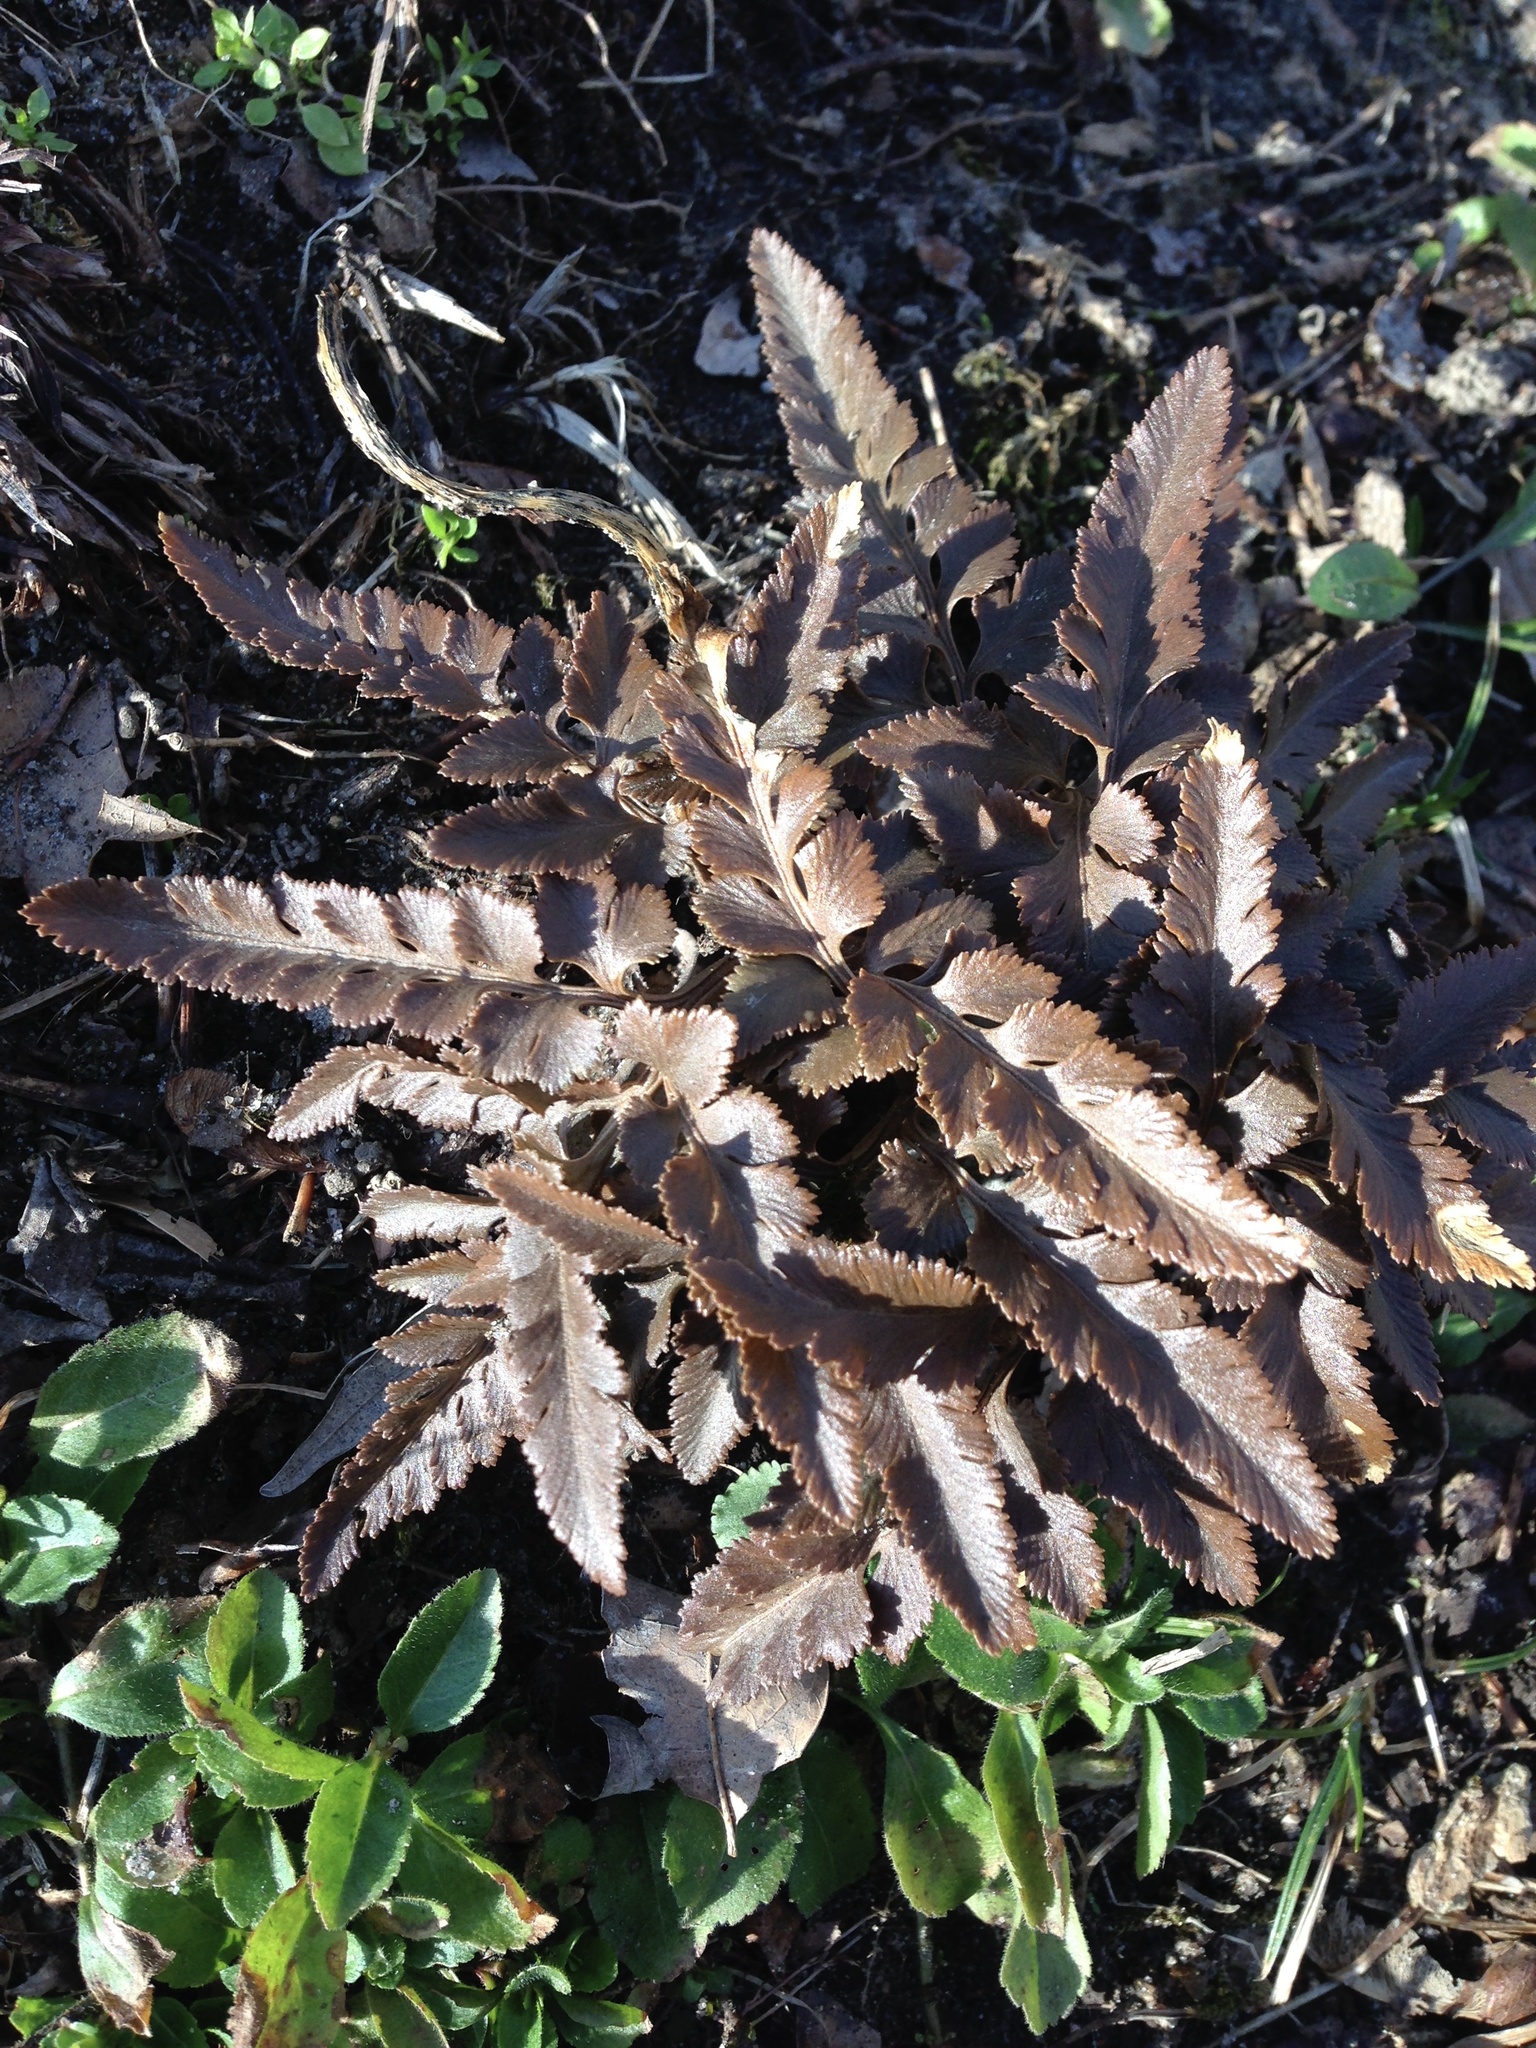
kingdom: Plantae
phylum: Tracheophyta
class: Polypodiopsida
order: Ophioglossales
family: Ophioglossaceae
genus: Sceptridium
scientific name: Sceptridium dissectum
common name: Cut-leaved grapefern
